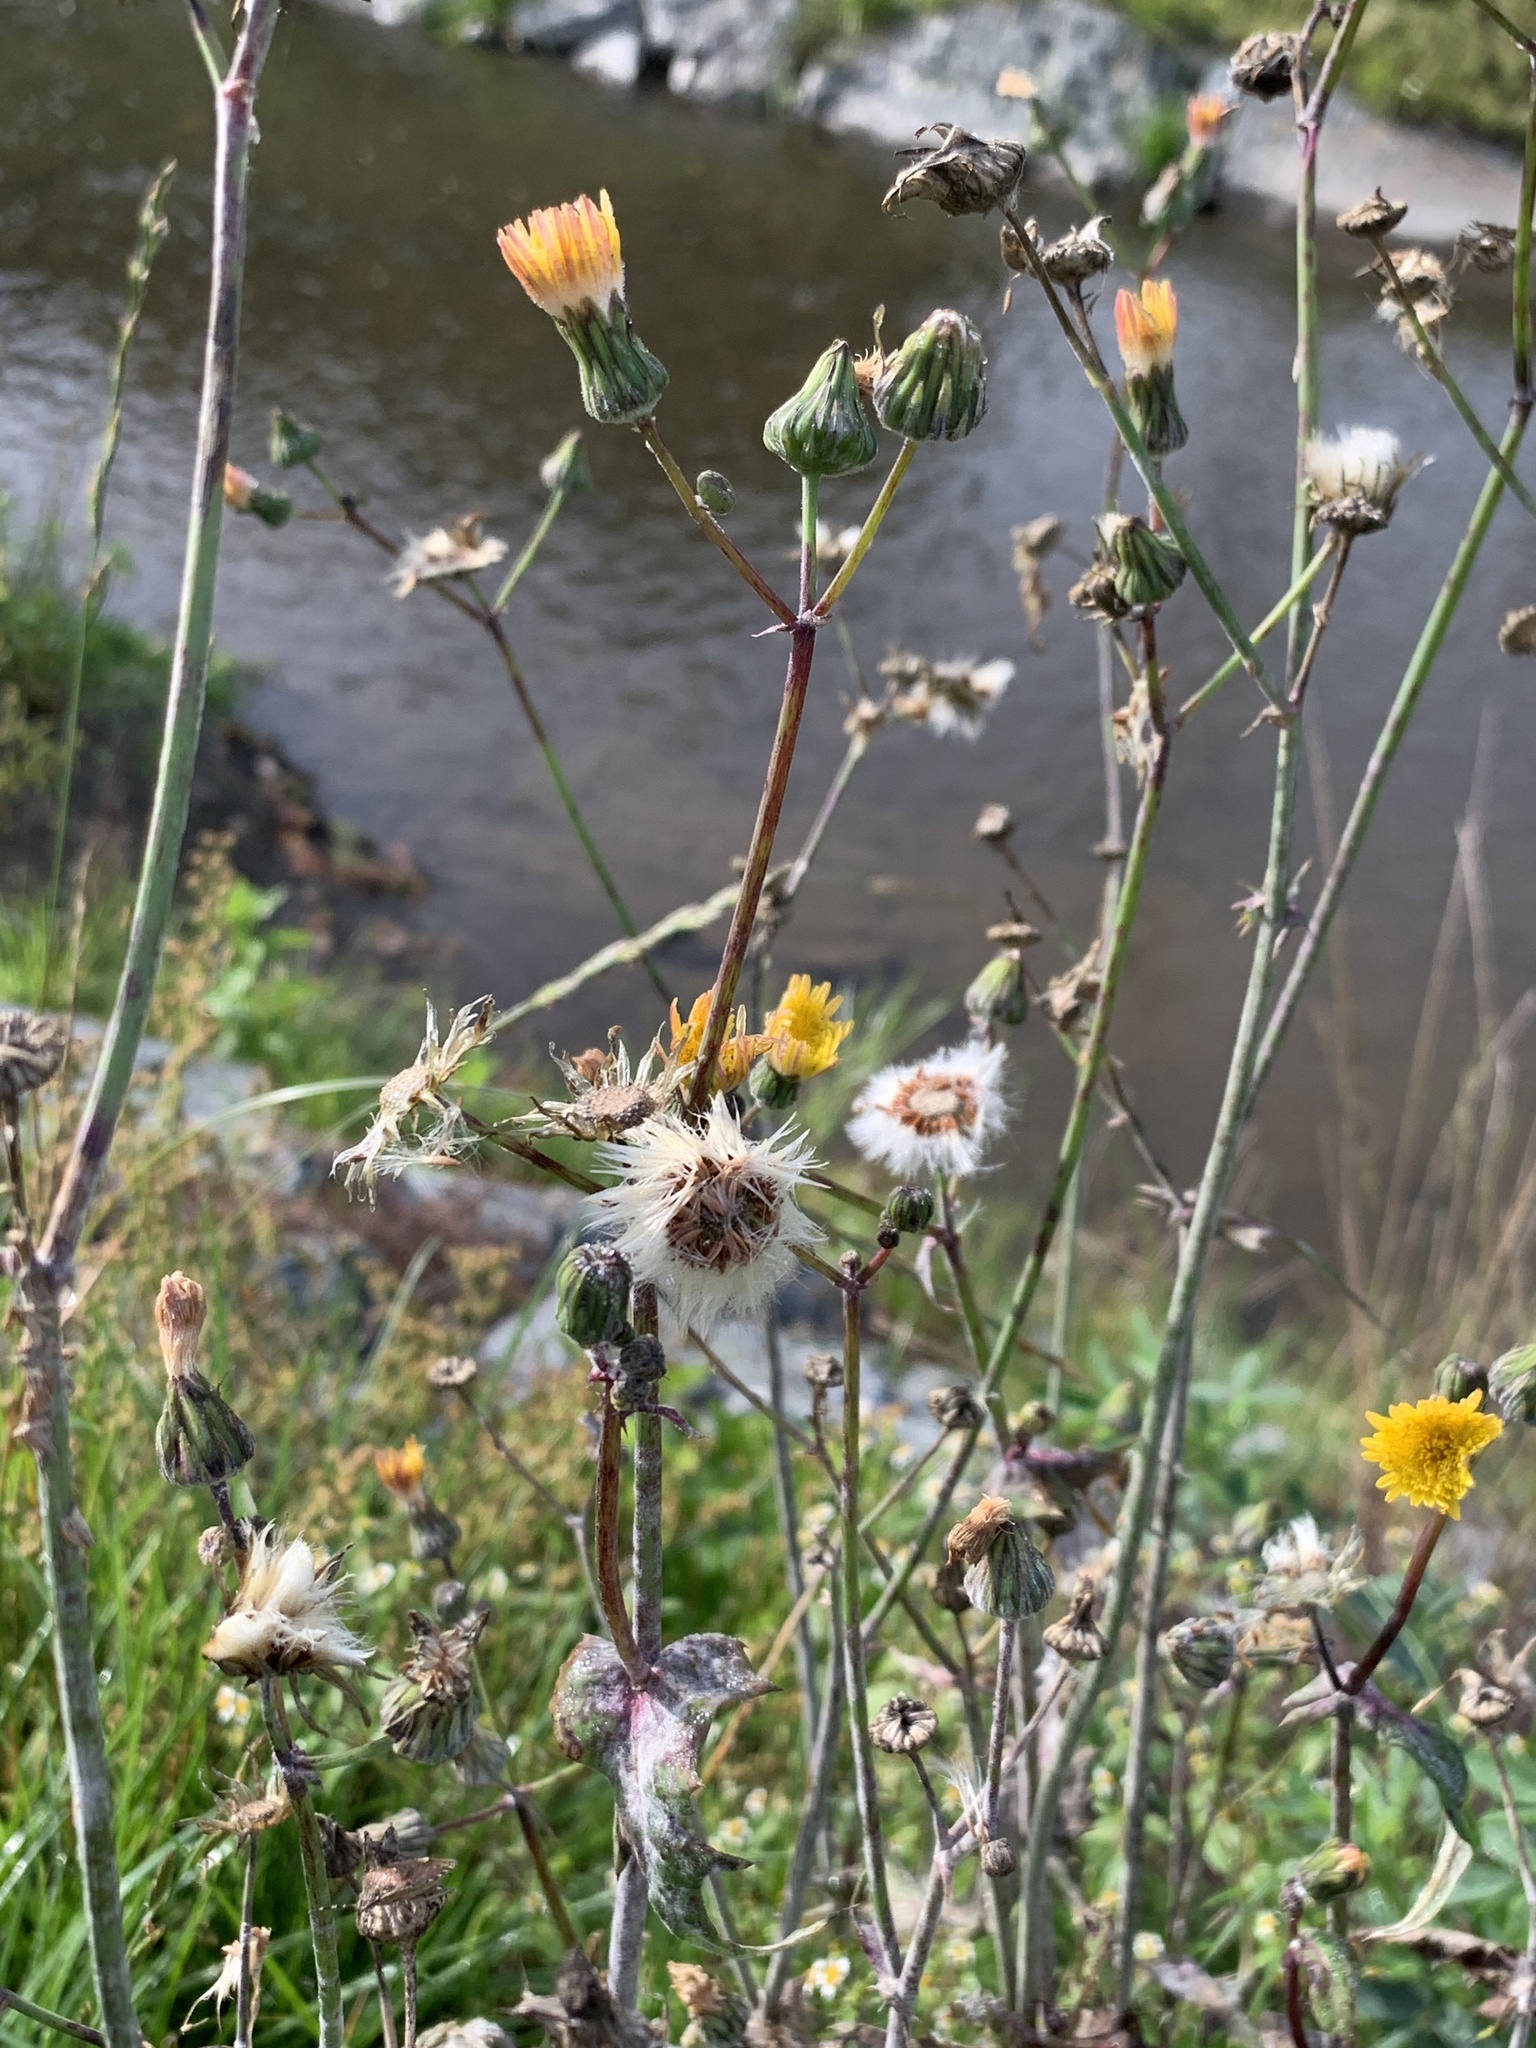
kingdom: Plantae
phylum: Tracheophyta
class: Magnoliopsida
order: Asterales
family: Asteraceae
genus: Sonchus
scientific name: Sonchus oleraceus
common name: Common sowthistle
